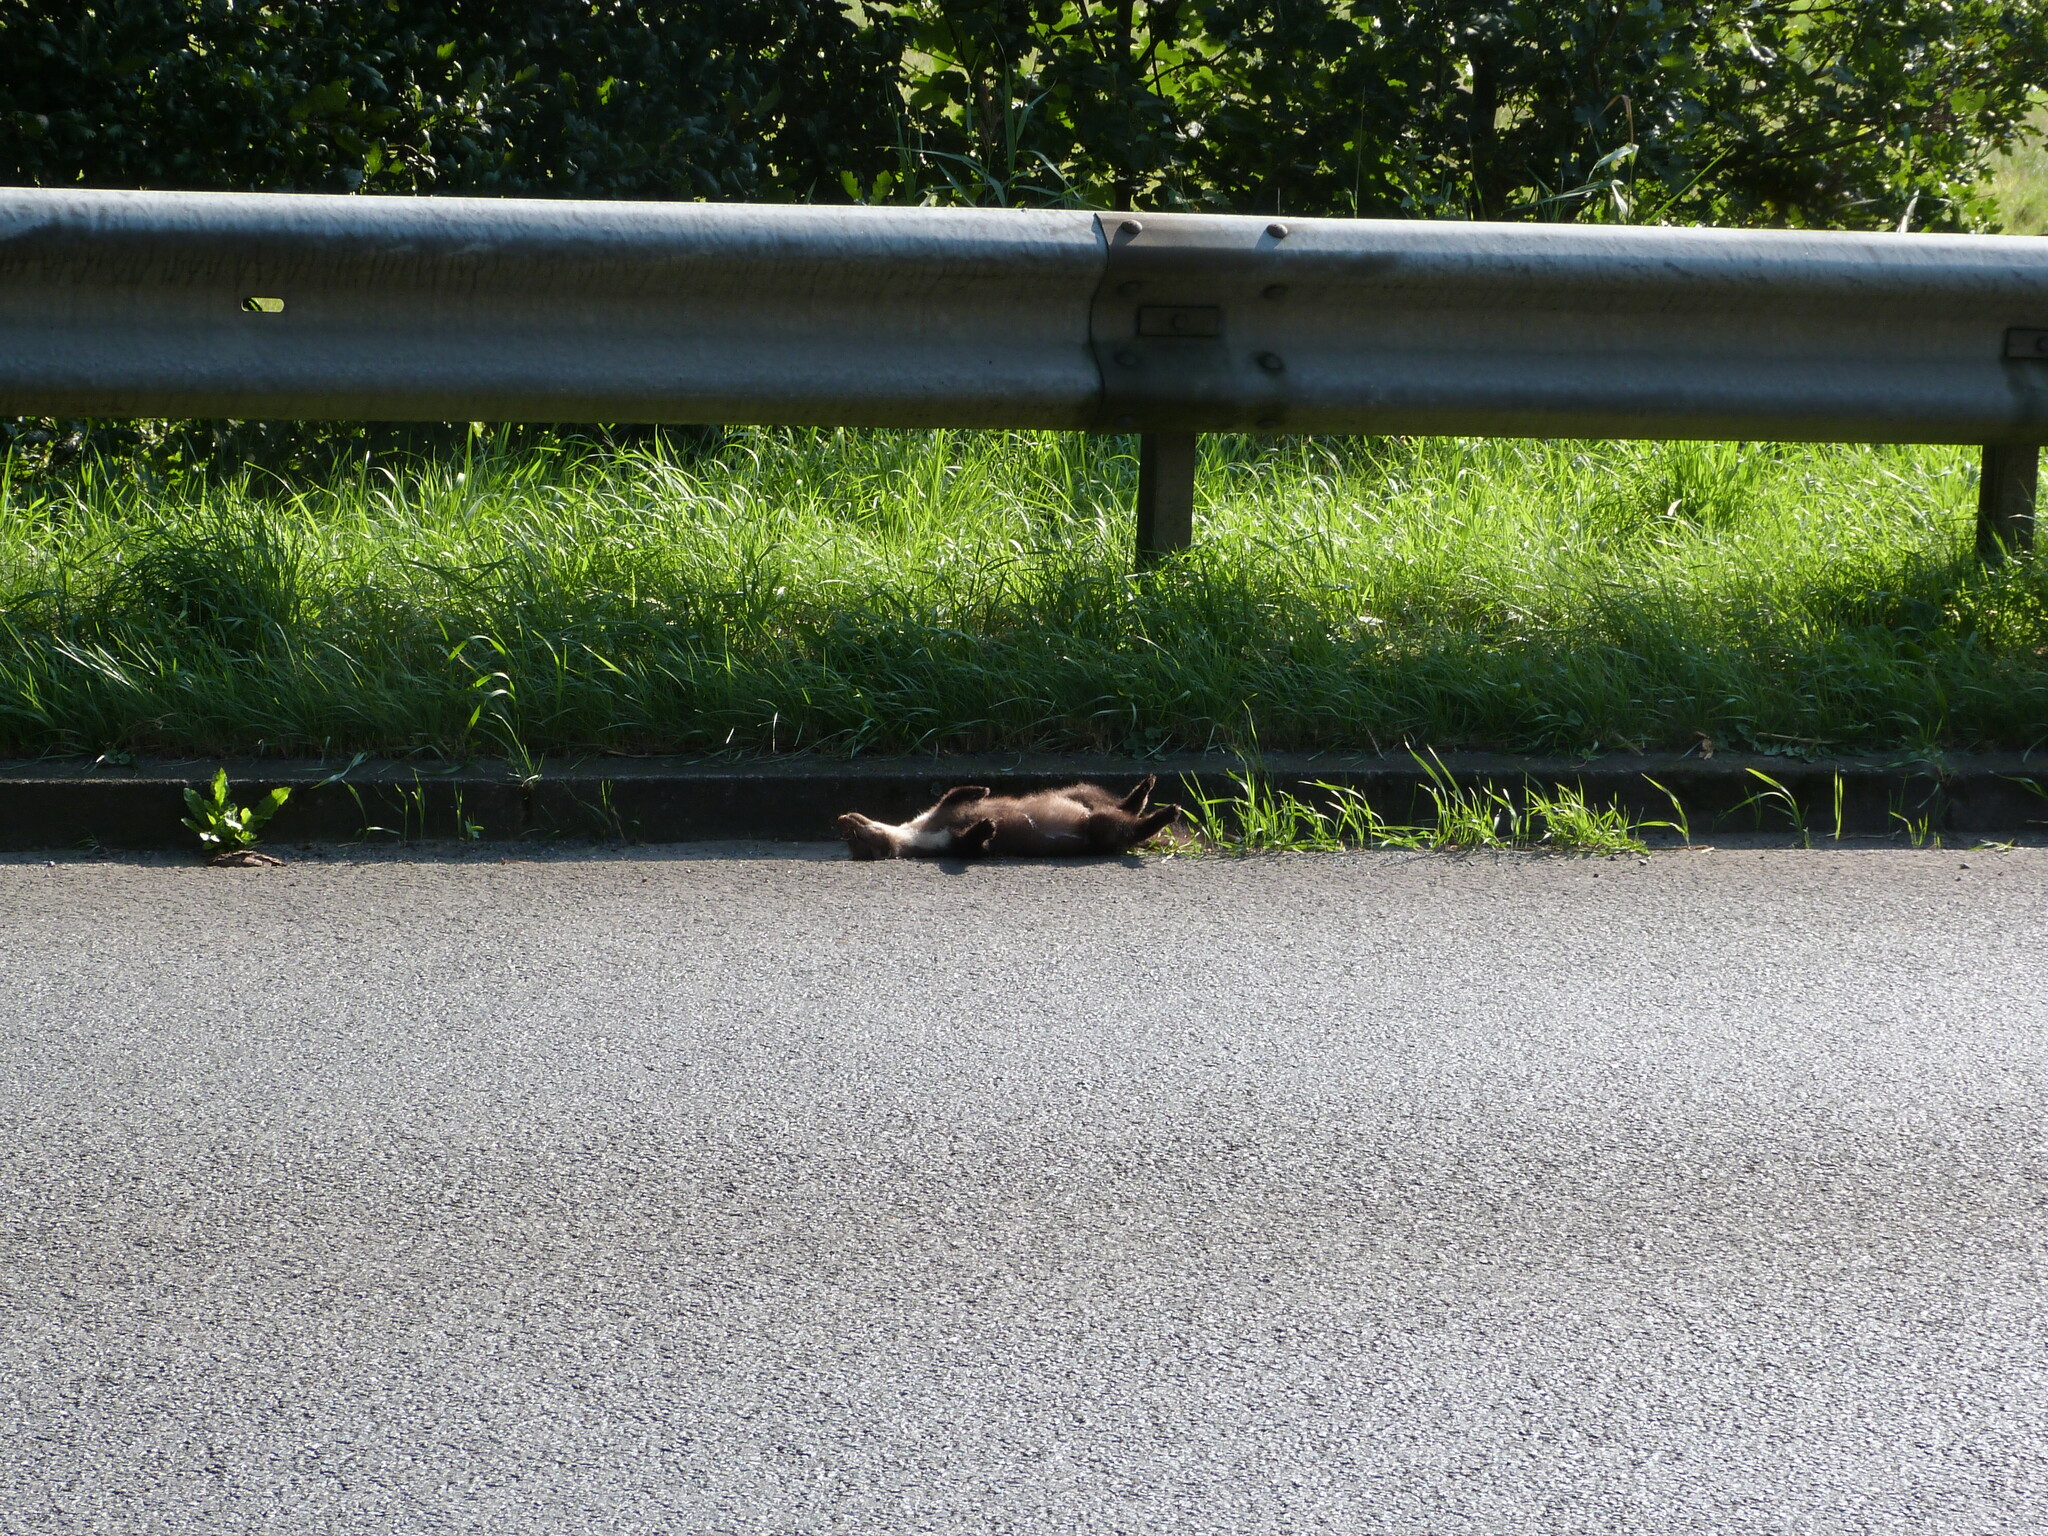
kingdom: Animalia
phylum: Chordata
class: Mammalia
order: Carnivora
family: Mustelidae
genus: Martes
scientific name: Martes foina
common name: Beech marten
